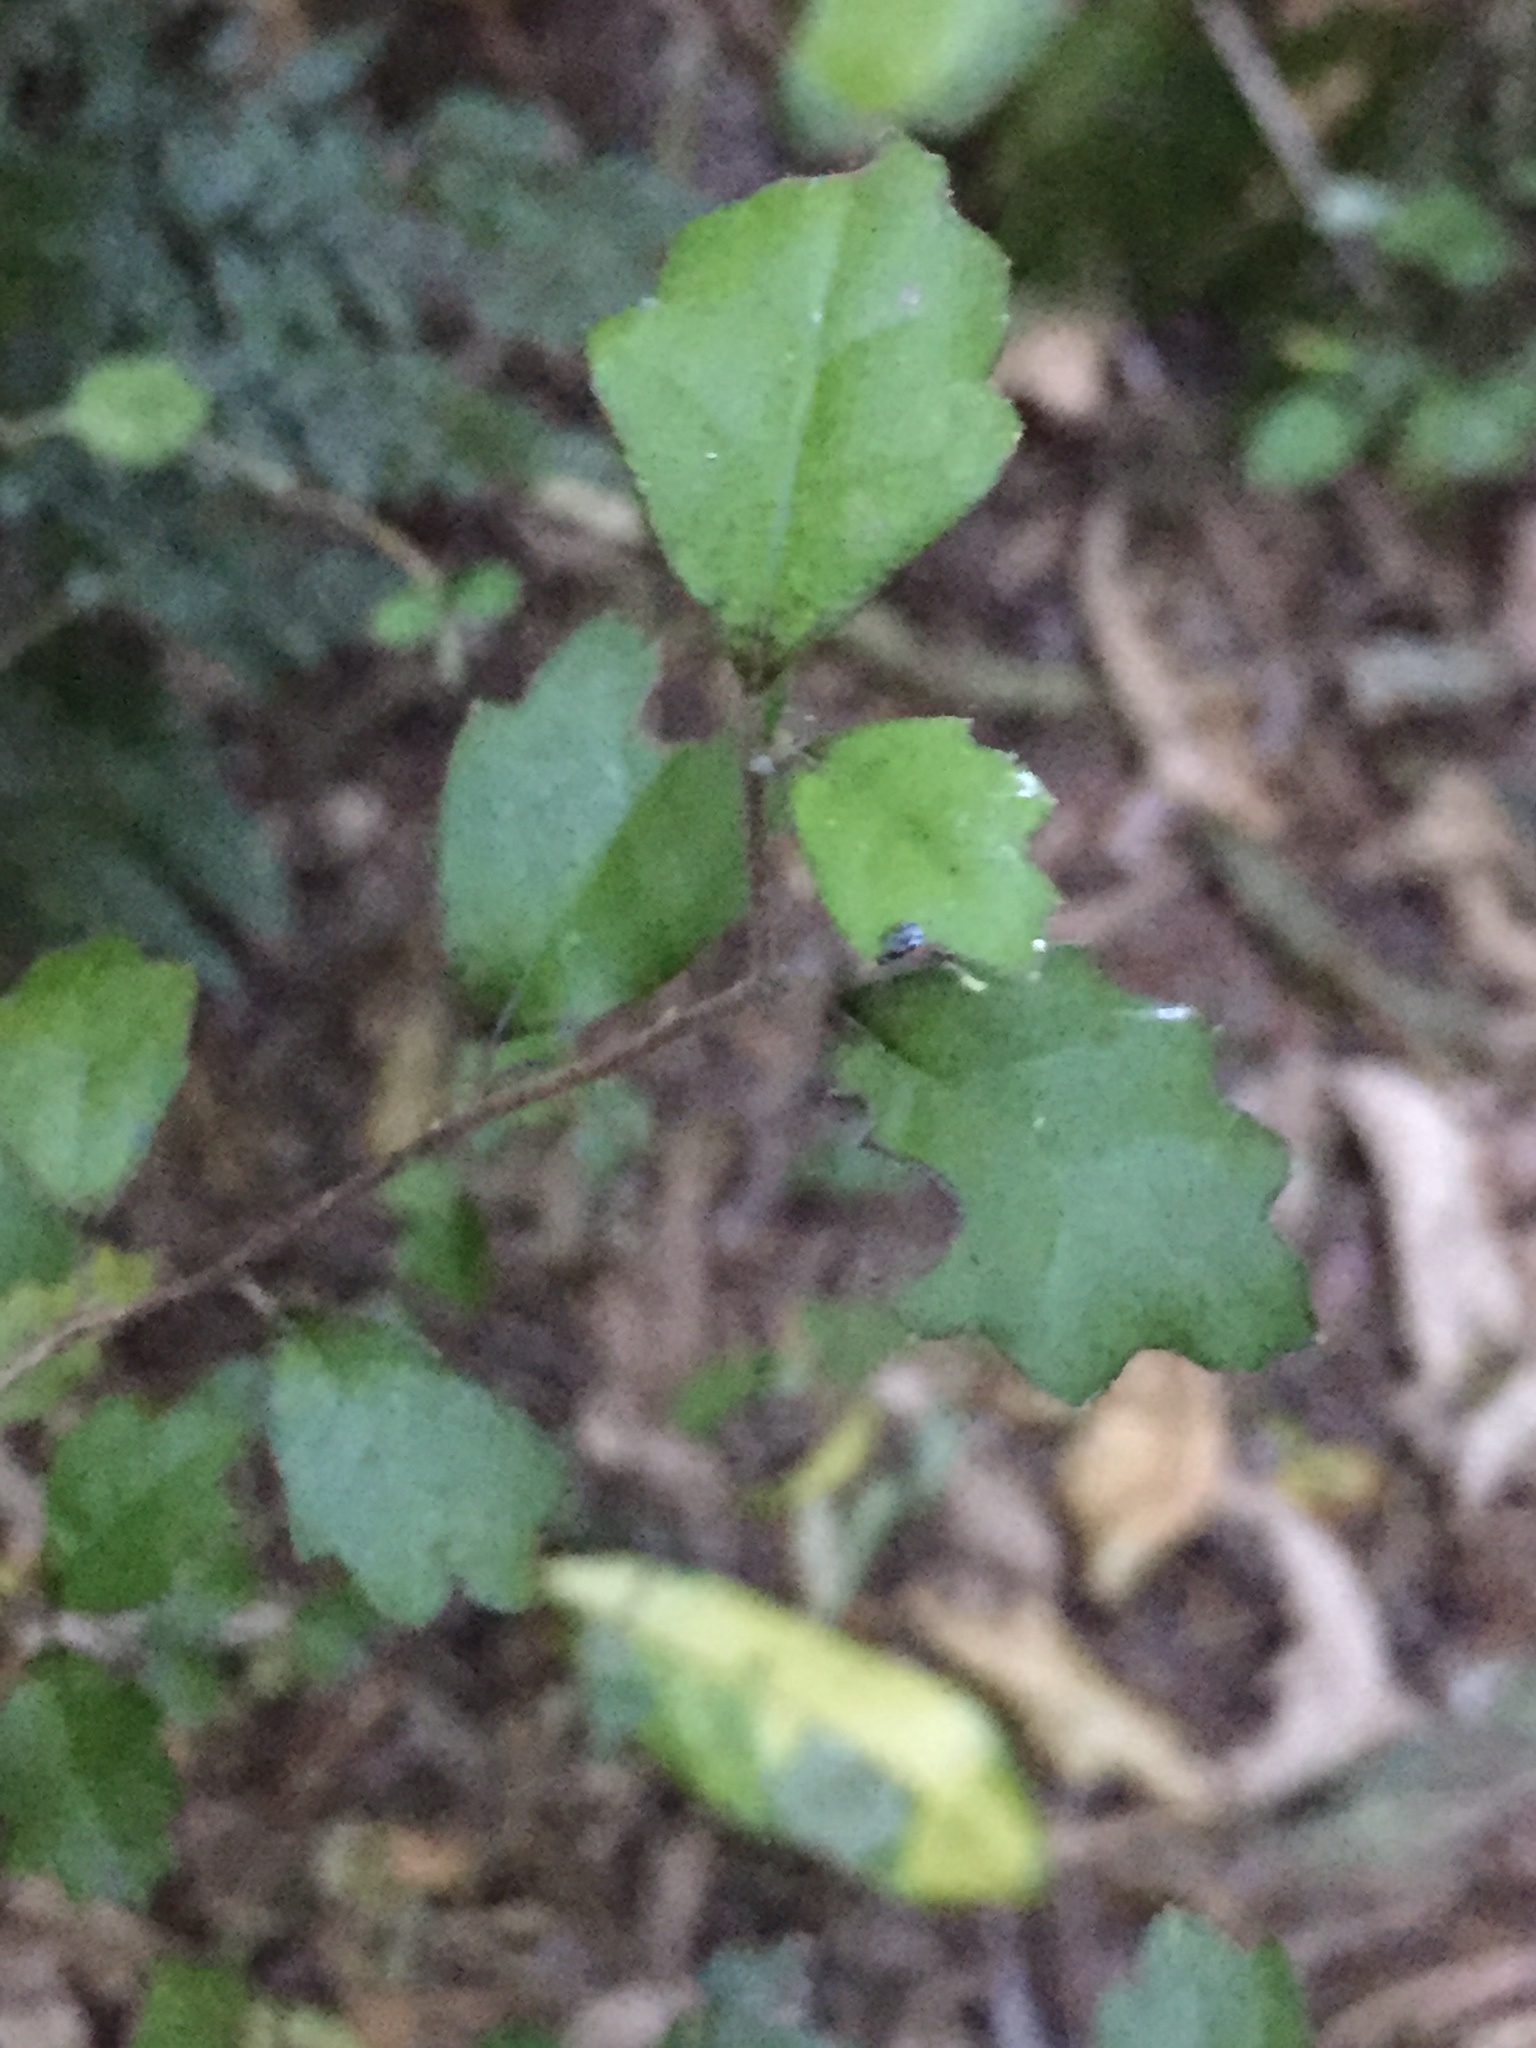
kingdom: Plantae
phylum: Tracheophyta
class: Magnoliopsida
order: Apiales
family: Pennantiaceae
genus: Pennantia
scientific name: Pennantia corymbosa
